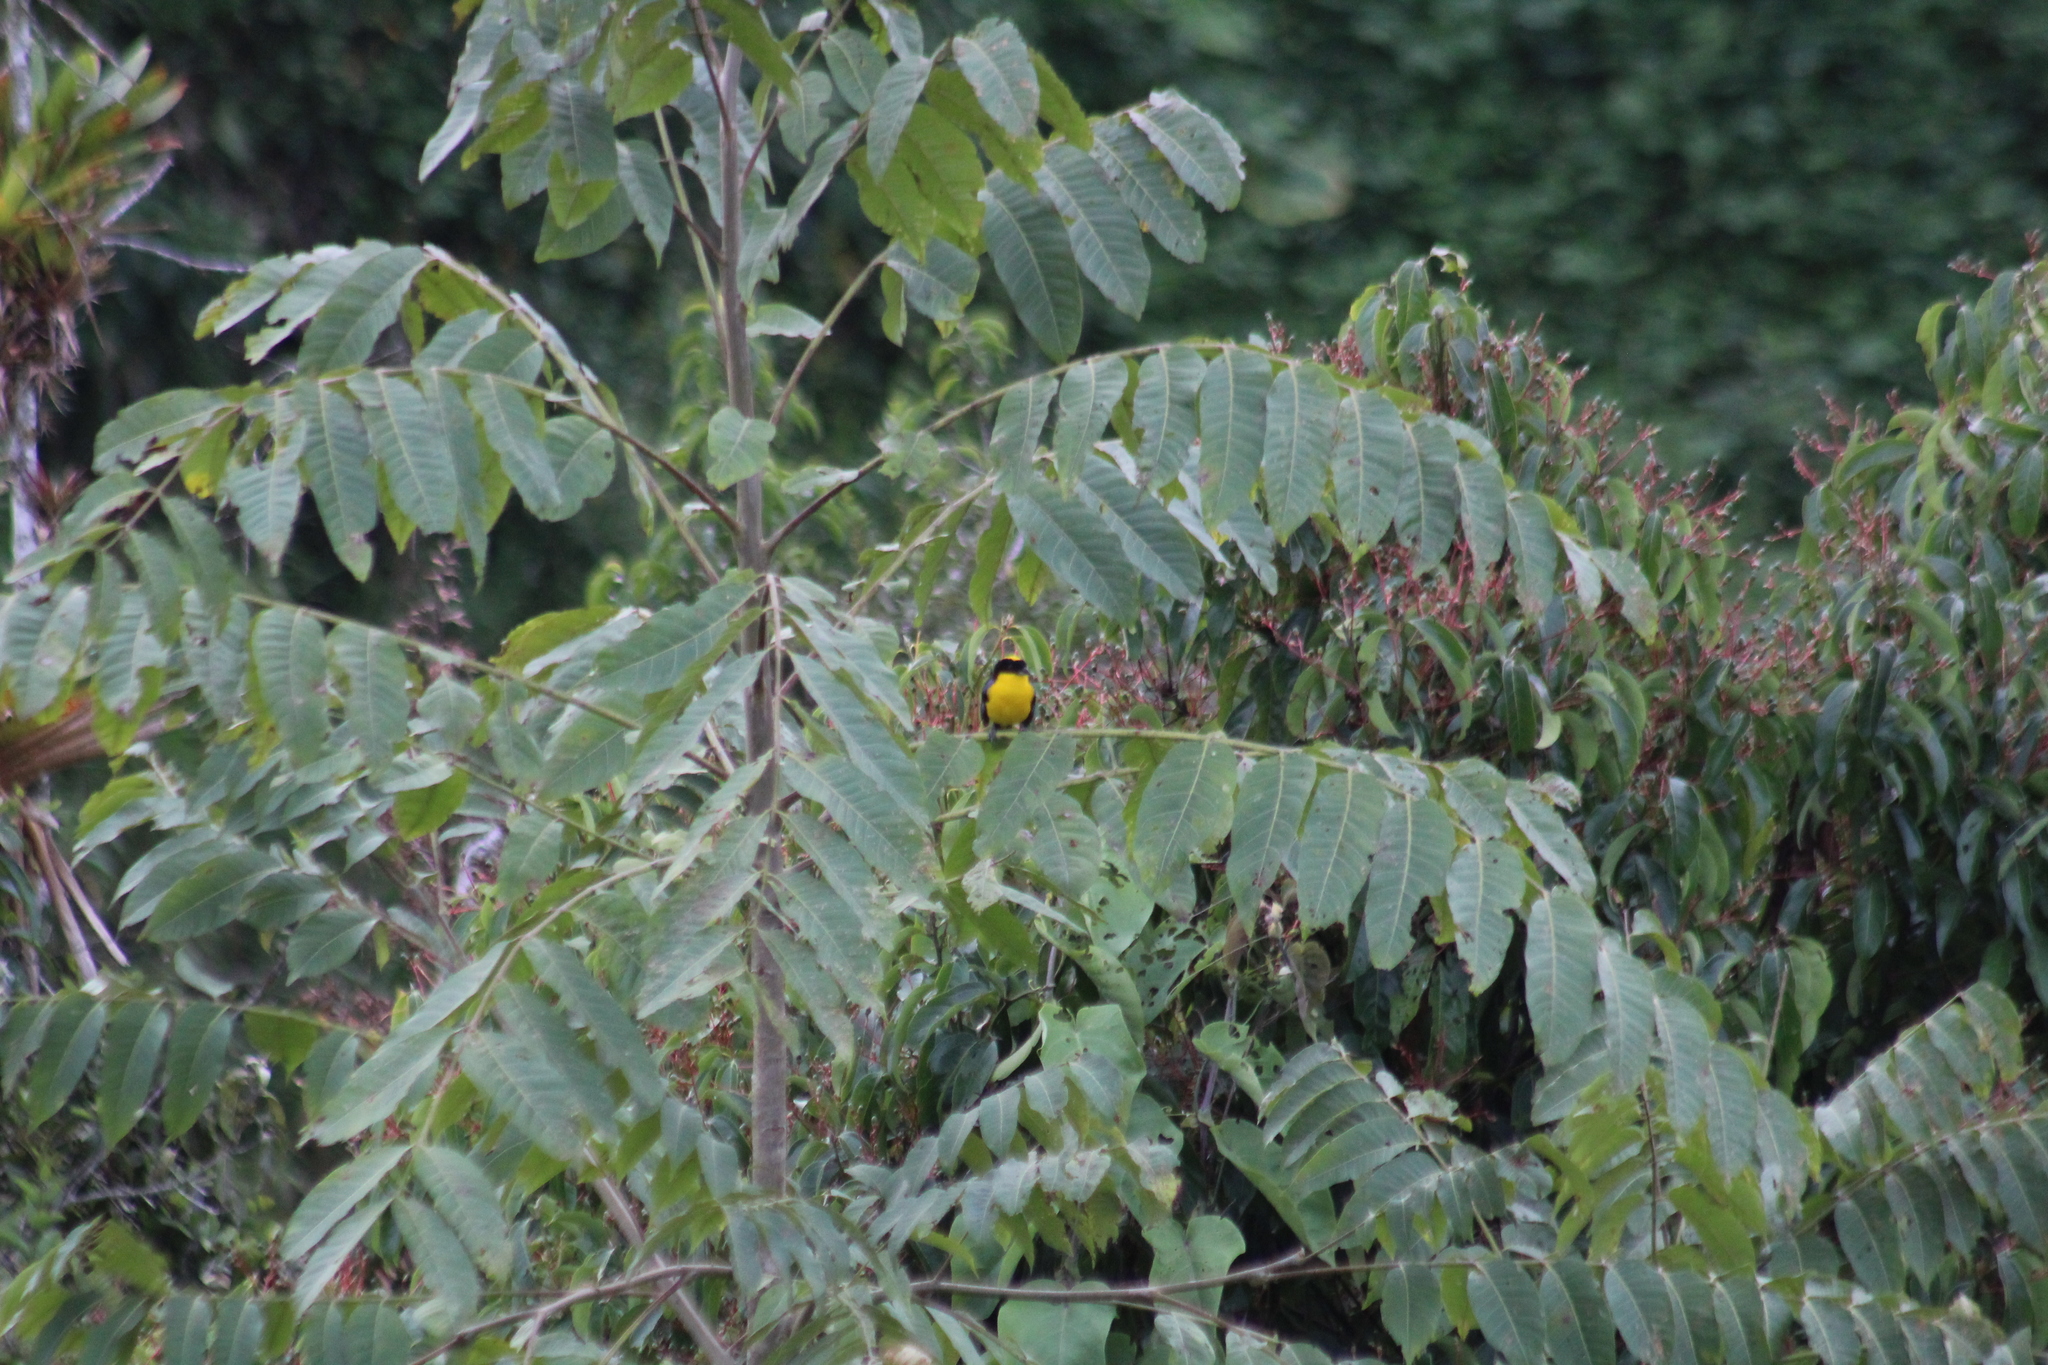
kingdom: Animalia
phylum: Chordata
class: Aves
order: Passeriformes
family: Thraupidae
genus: Anisognathus
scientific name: Anisognathus somptuosus
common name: Blue-winged mountain-tanager
